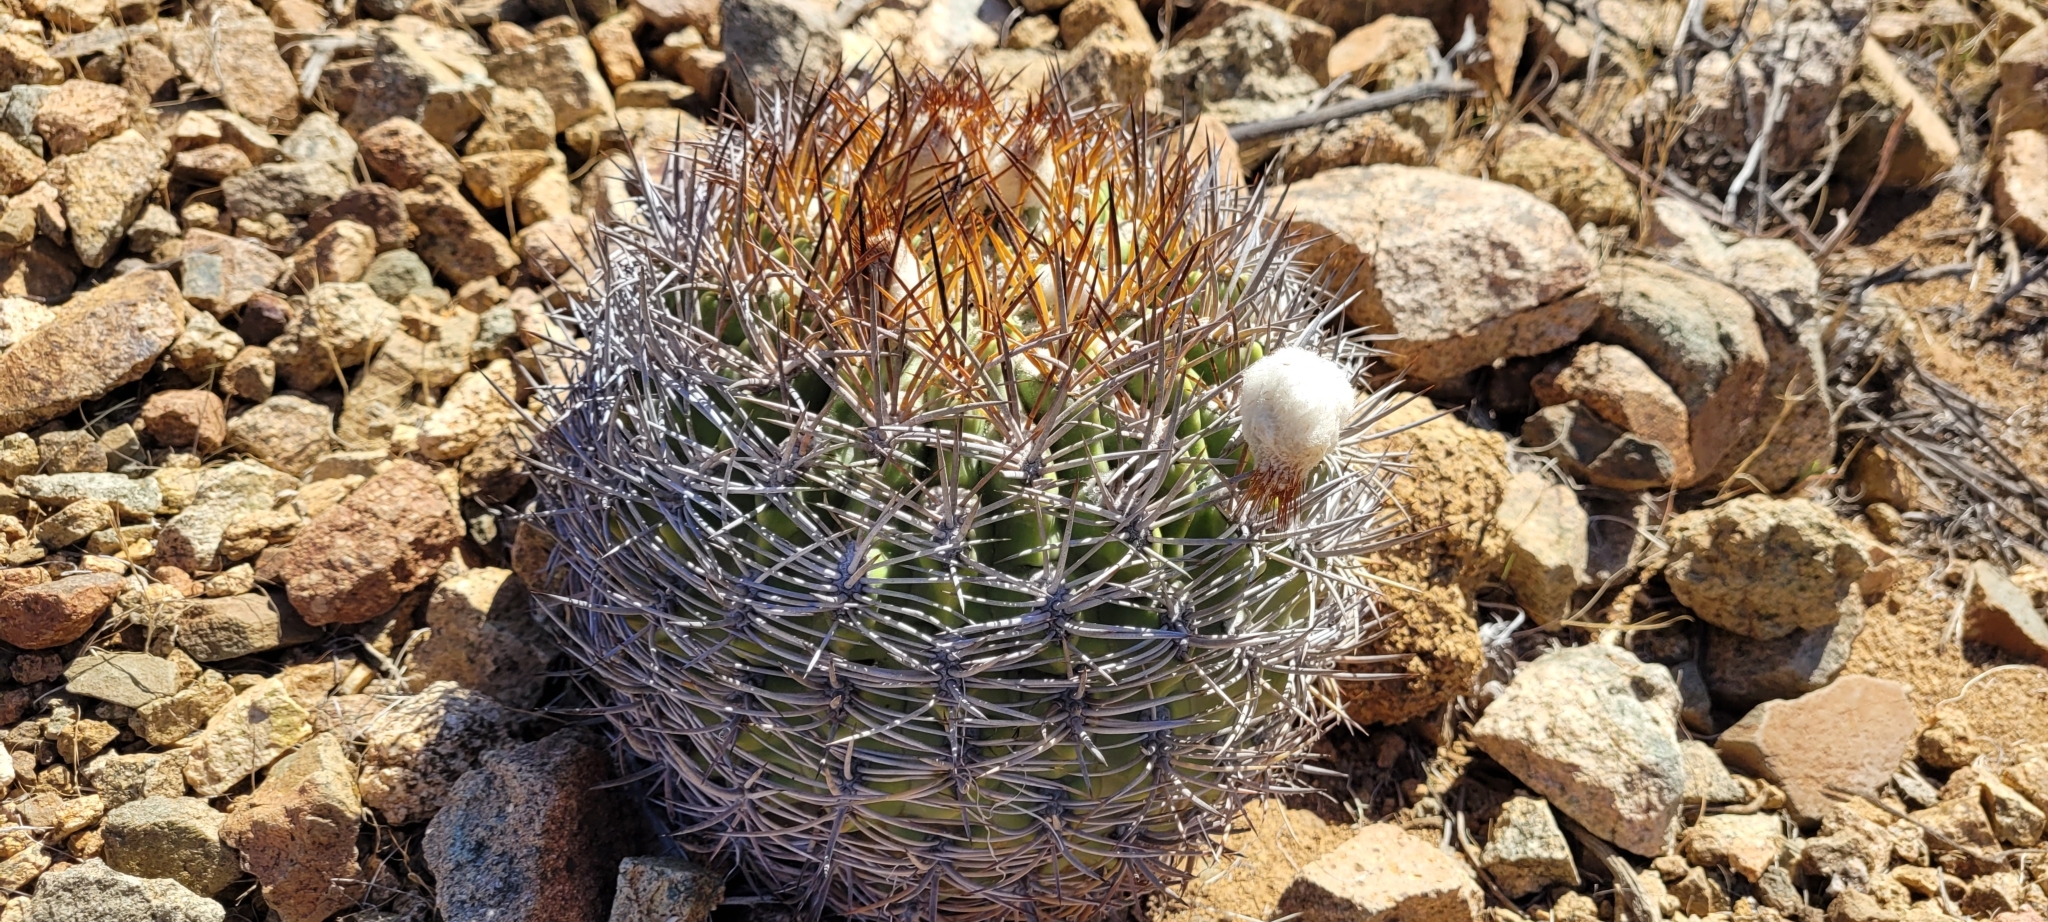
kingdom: Plantae
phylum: Tracheophyta
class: Magnoliopsida
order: Caryophyllales
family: Cactaceae
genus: Eriosyce
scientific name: Eriosyce aurata
